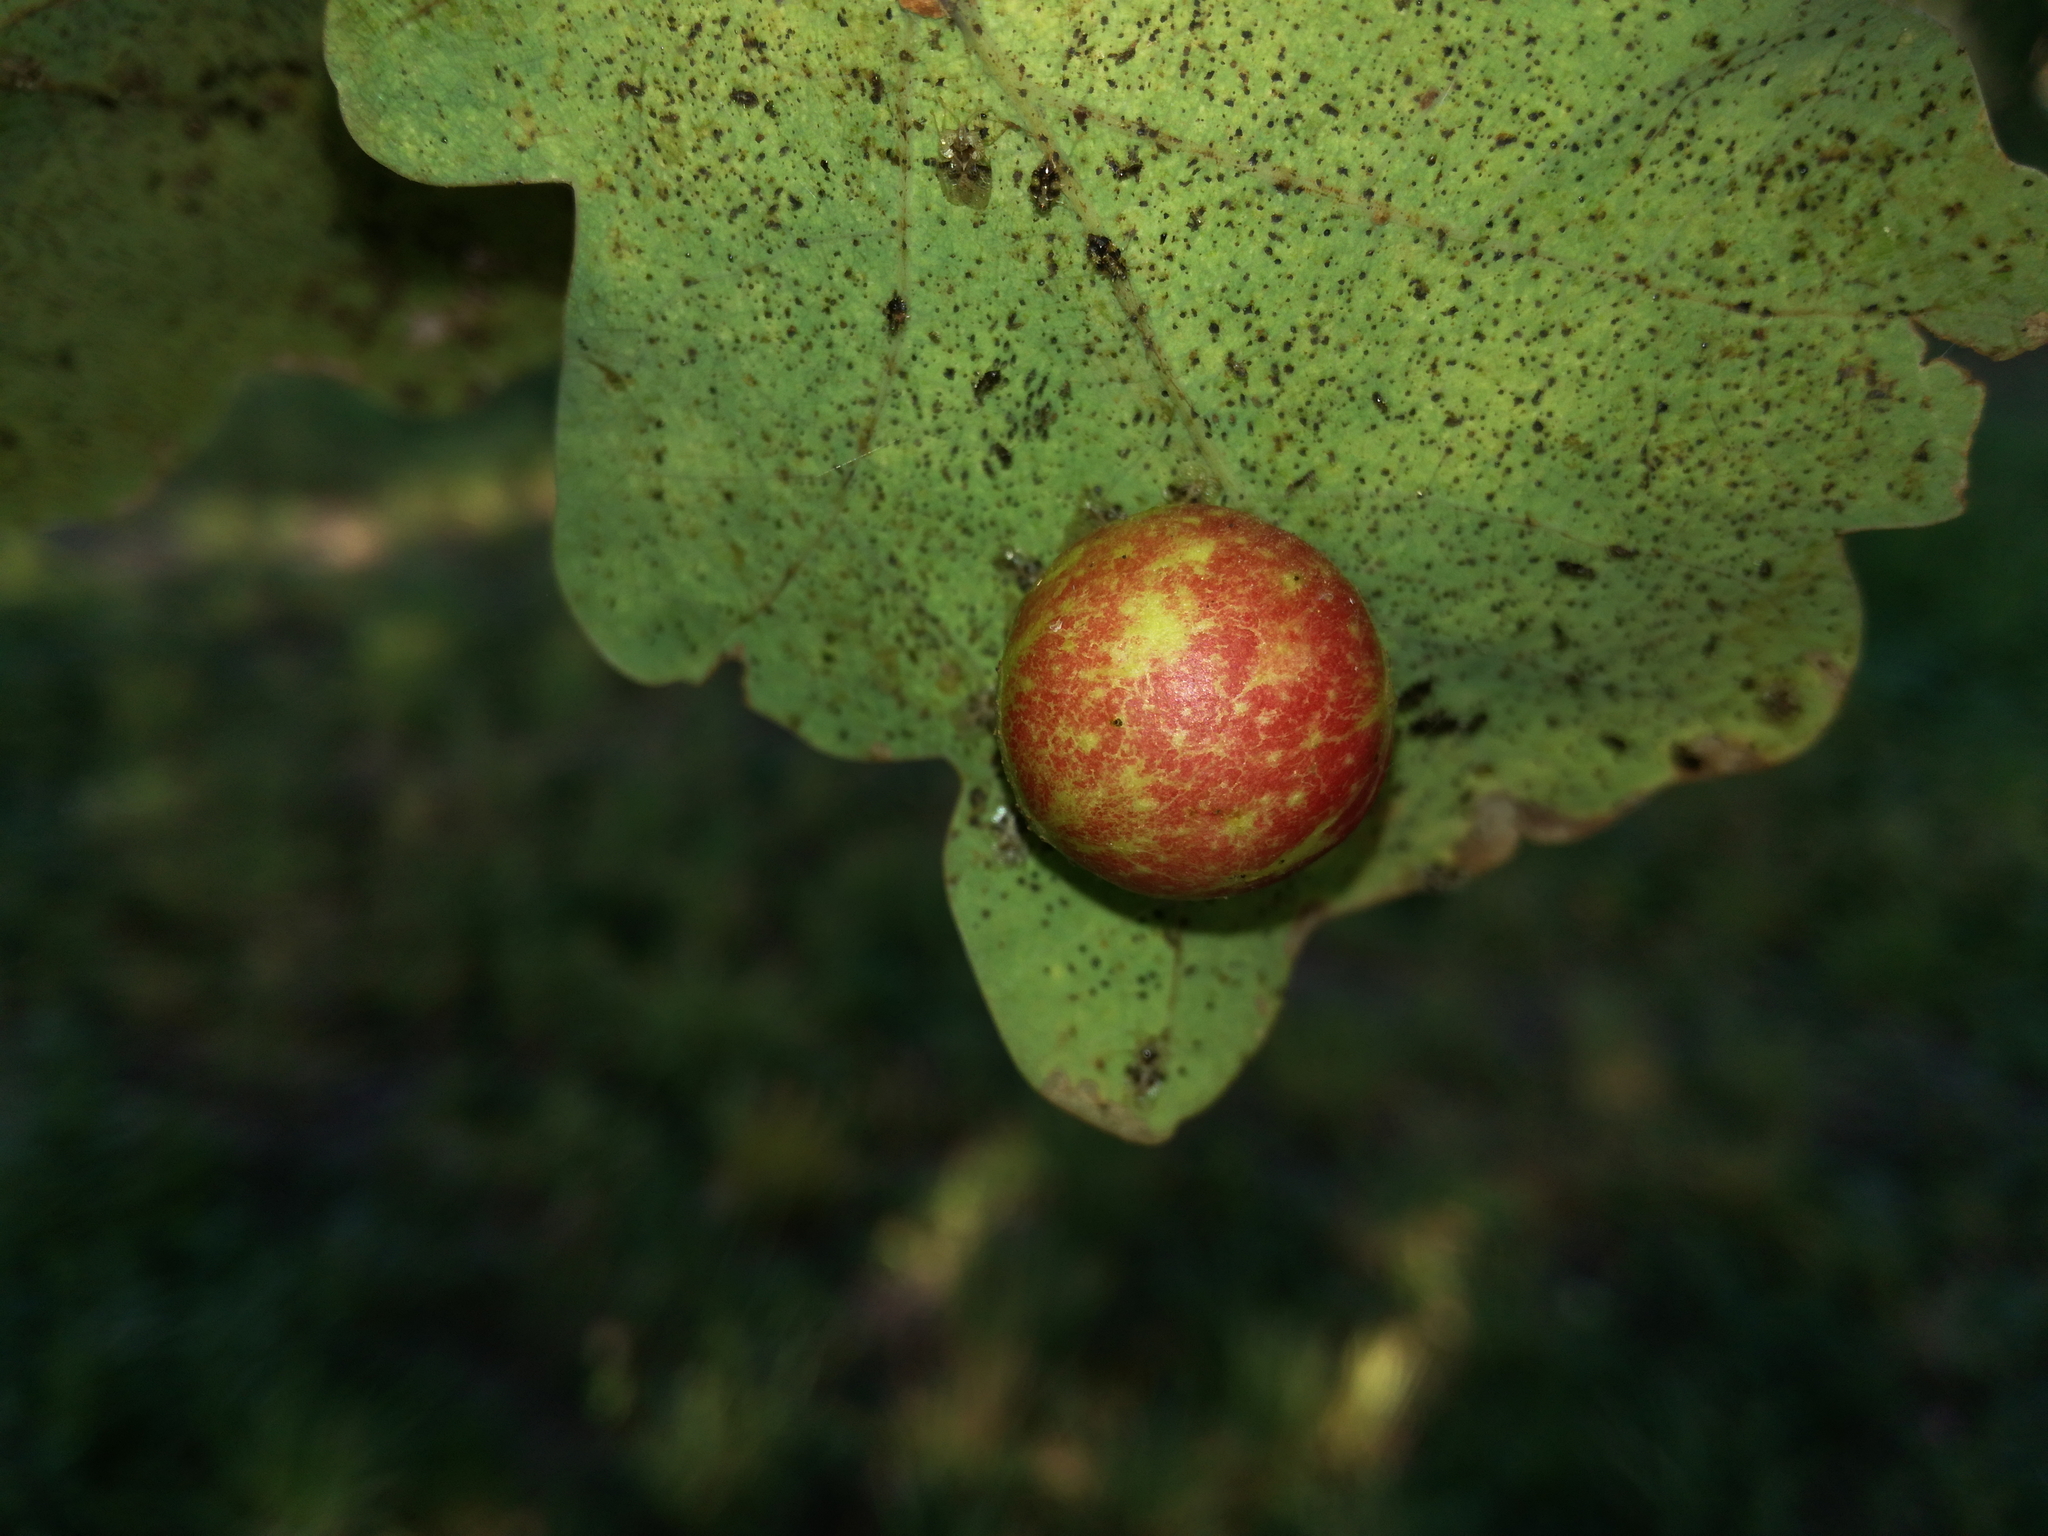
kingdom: Animalia
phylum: Arthropoda
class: Insecta
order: Hymenoptera
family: Cynipidae
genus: Cynips
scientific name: Cynips quercusfolii
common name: Cherry gall
